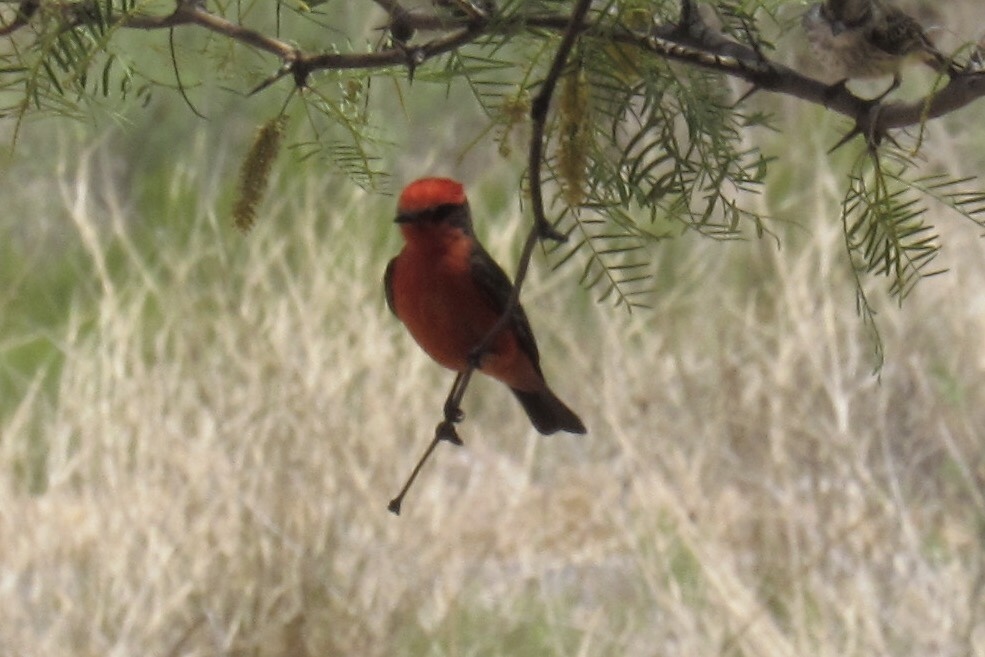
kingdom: Animalia
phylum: Chordata
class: Aves
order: Passeriformes
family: Tyrannidae
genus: Pyrocephalus
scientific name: Pyrocephalus rubinus
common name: Vermilion flycatcher
